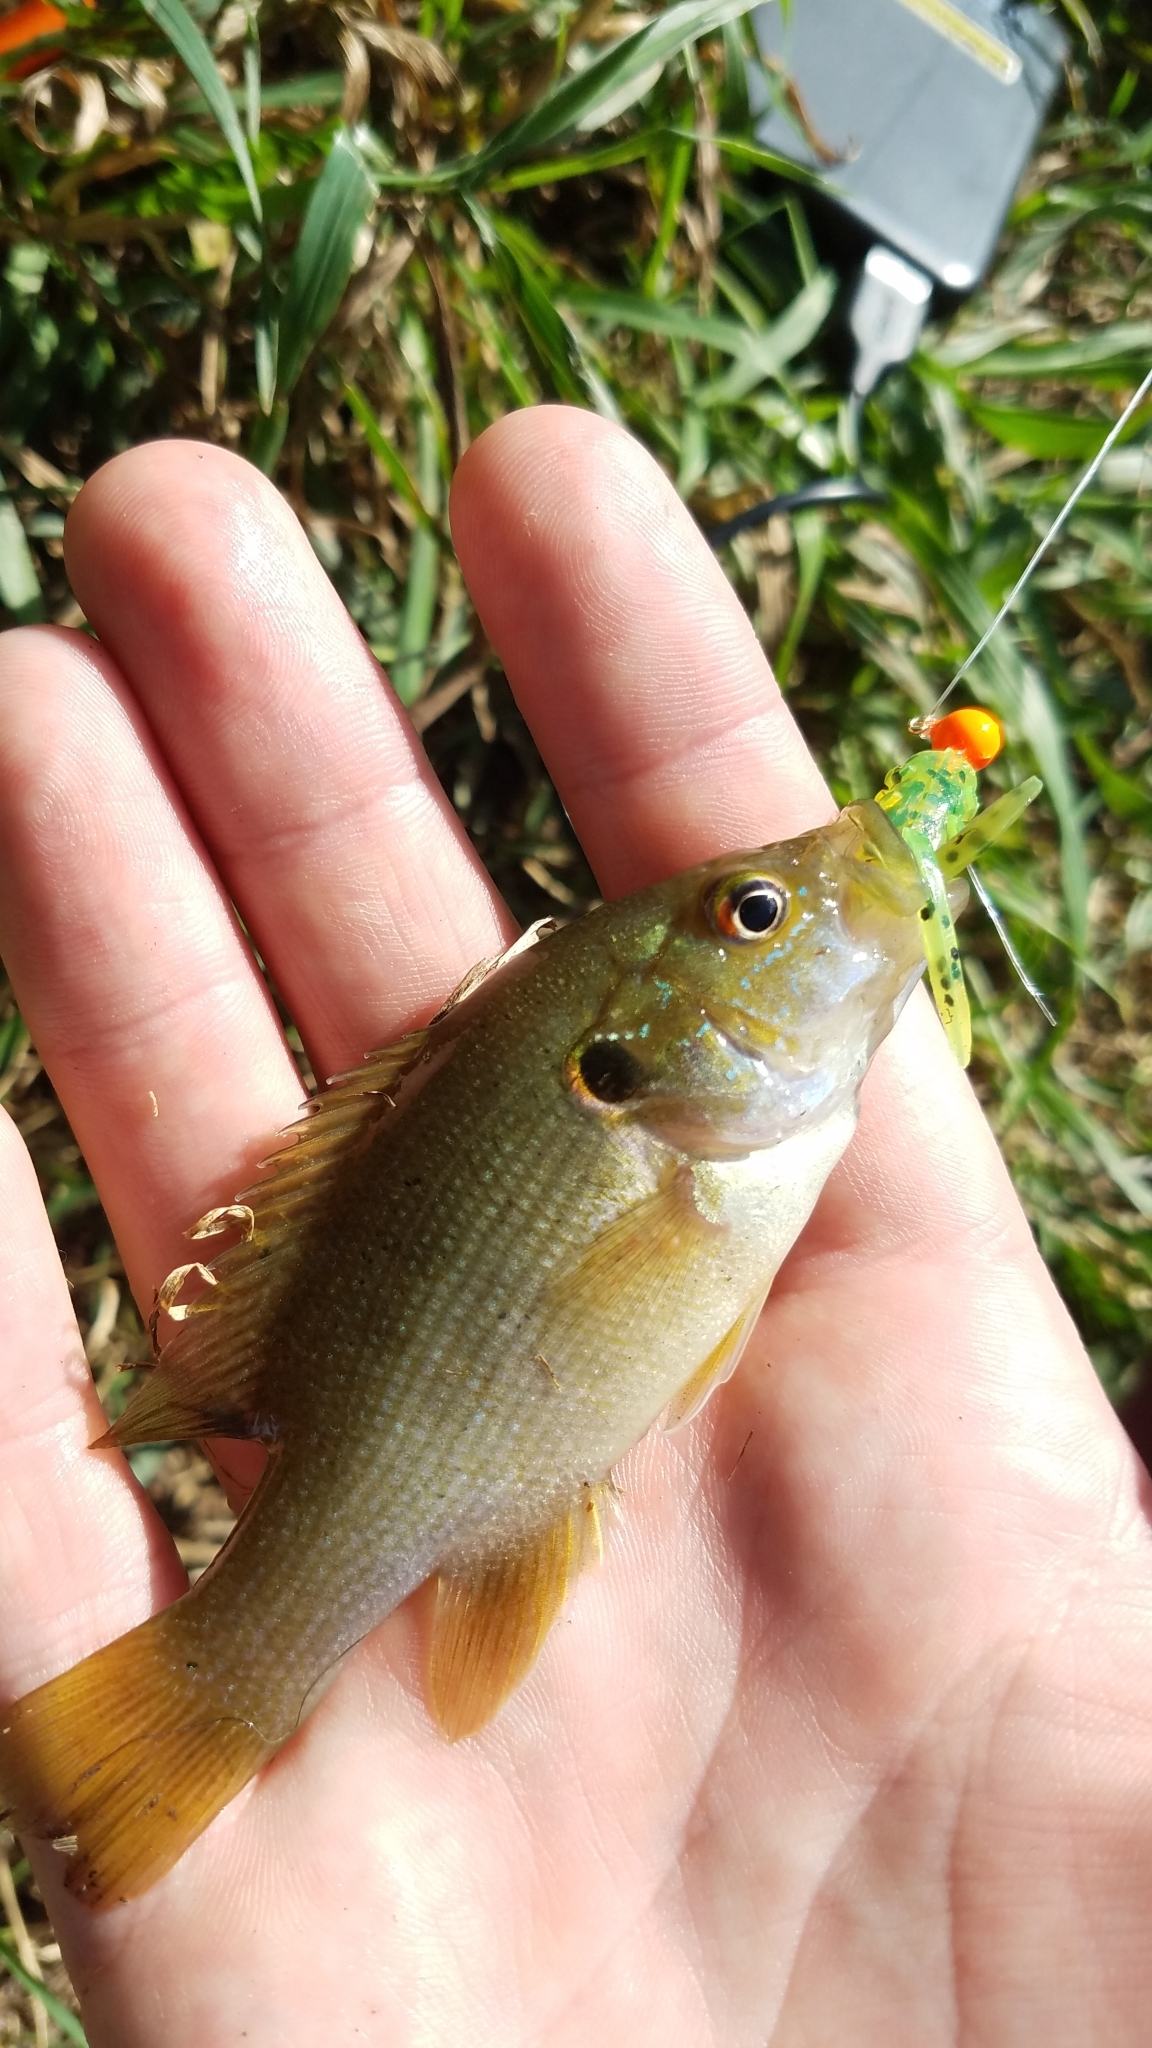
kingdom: Animalia
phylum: Chordata
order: Perciformes
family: Centrarchidae
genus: Lepomis
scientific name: Lepomis cyanellus
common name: Green sunfish
